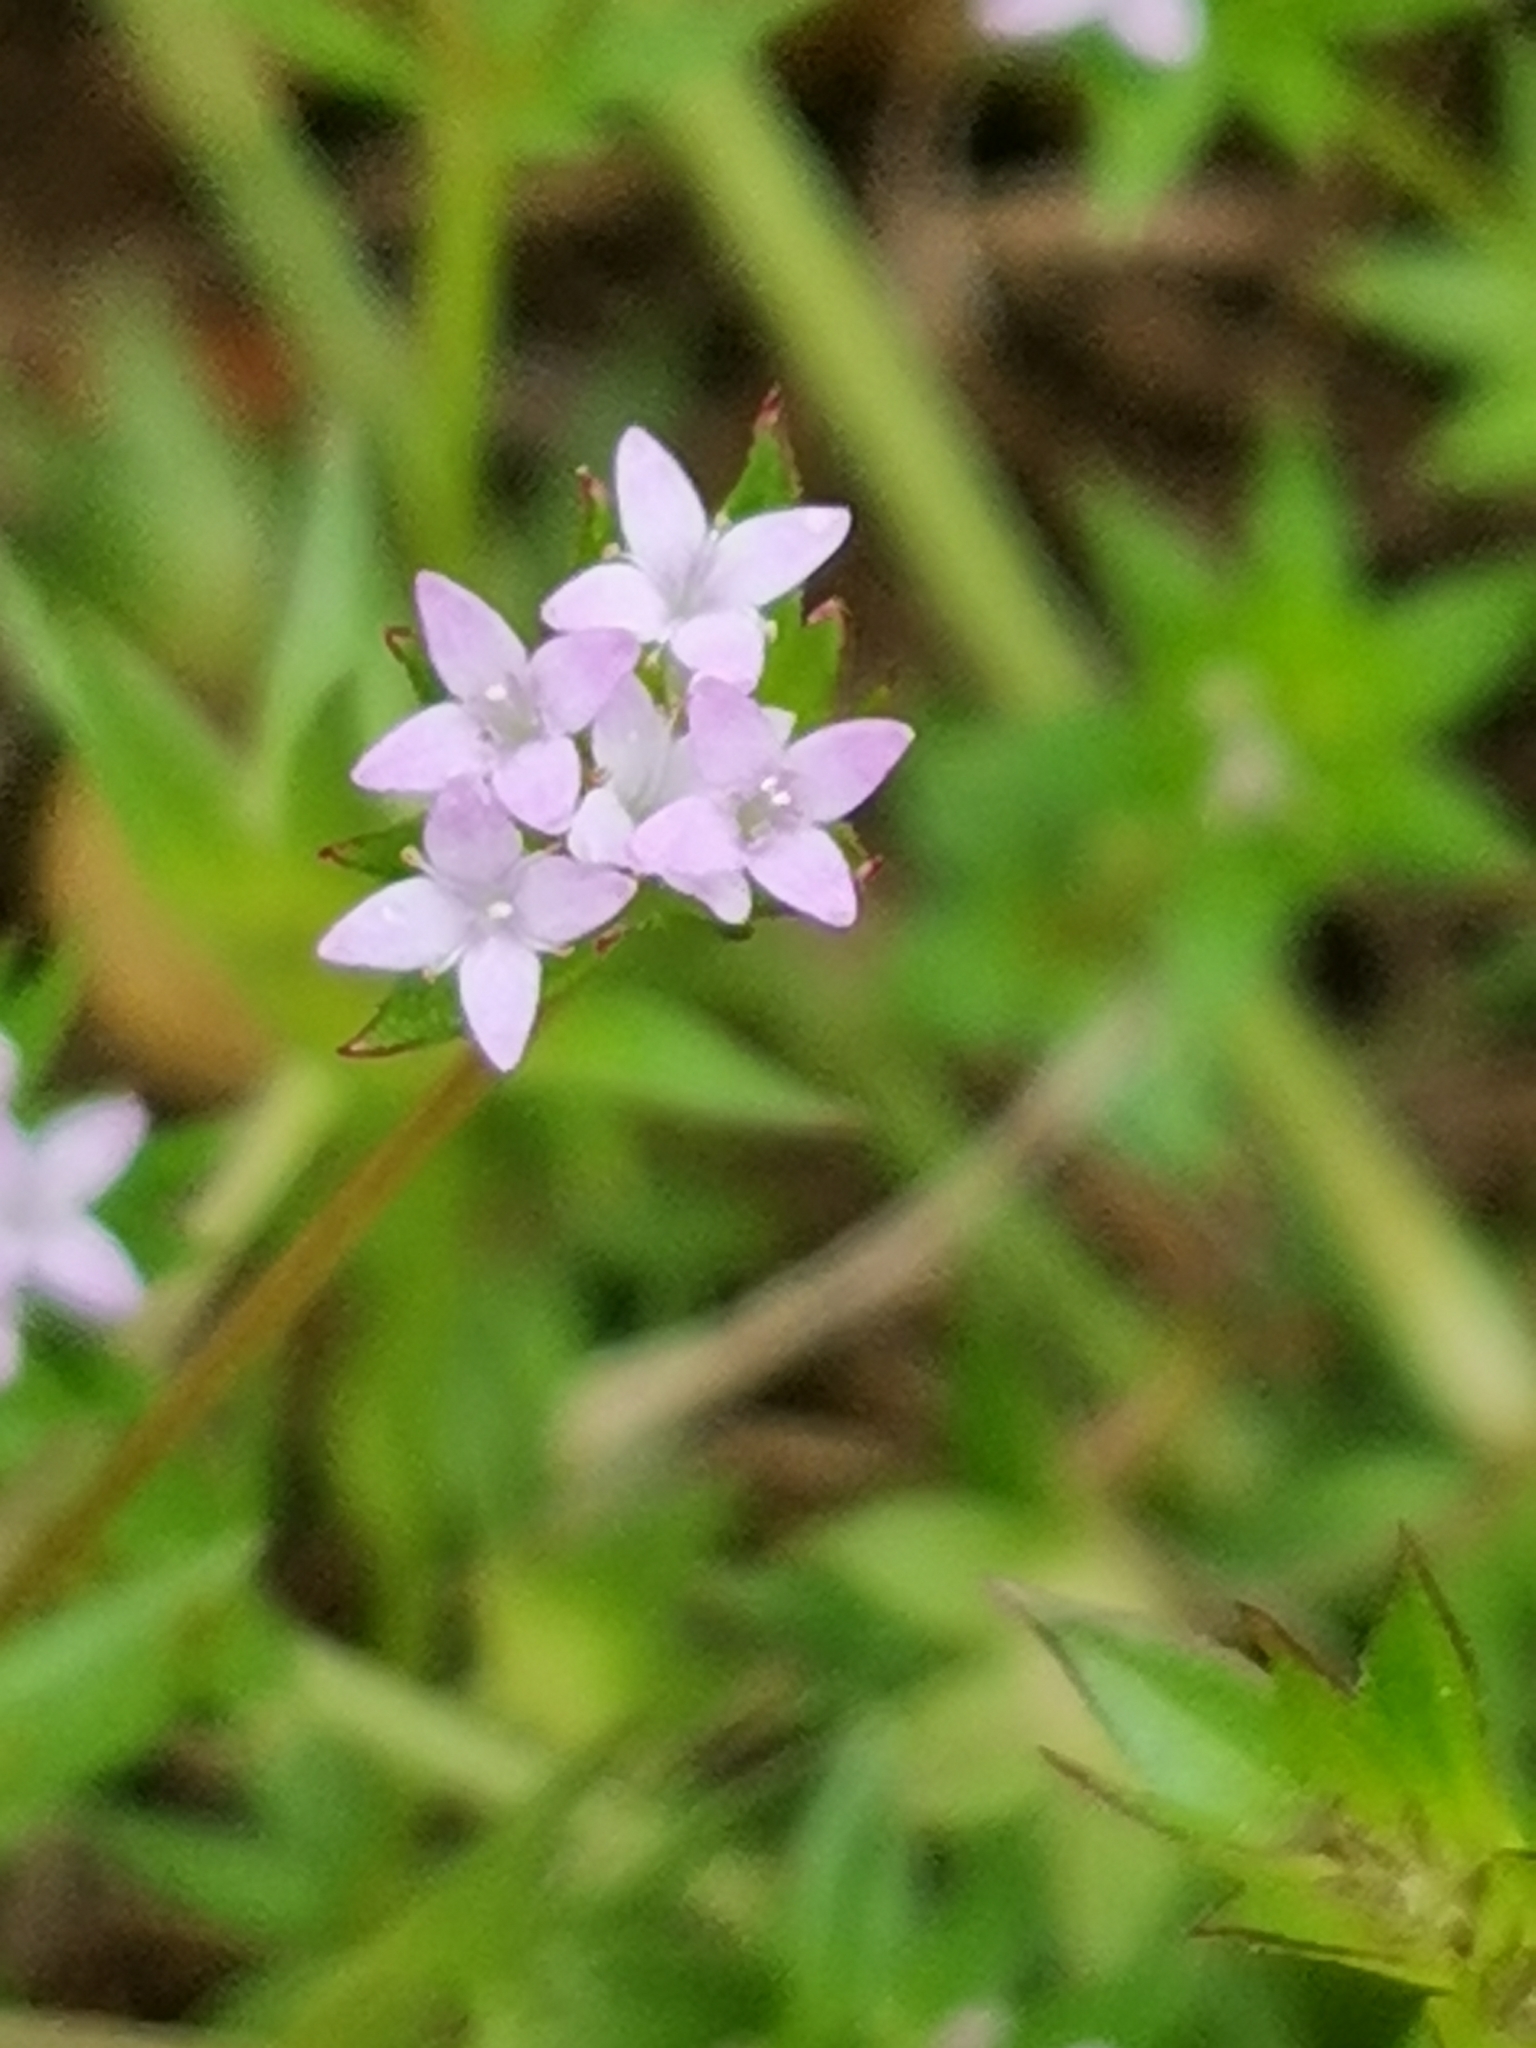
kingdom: Plantae
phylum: Tracheophyta
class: Magnoliopsida
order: Gentianales
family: Rubiaceae
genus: Sherardia
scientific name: Sherardia arvensis
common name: Field madder
